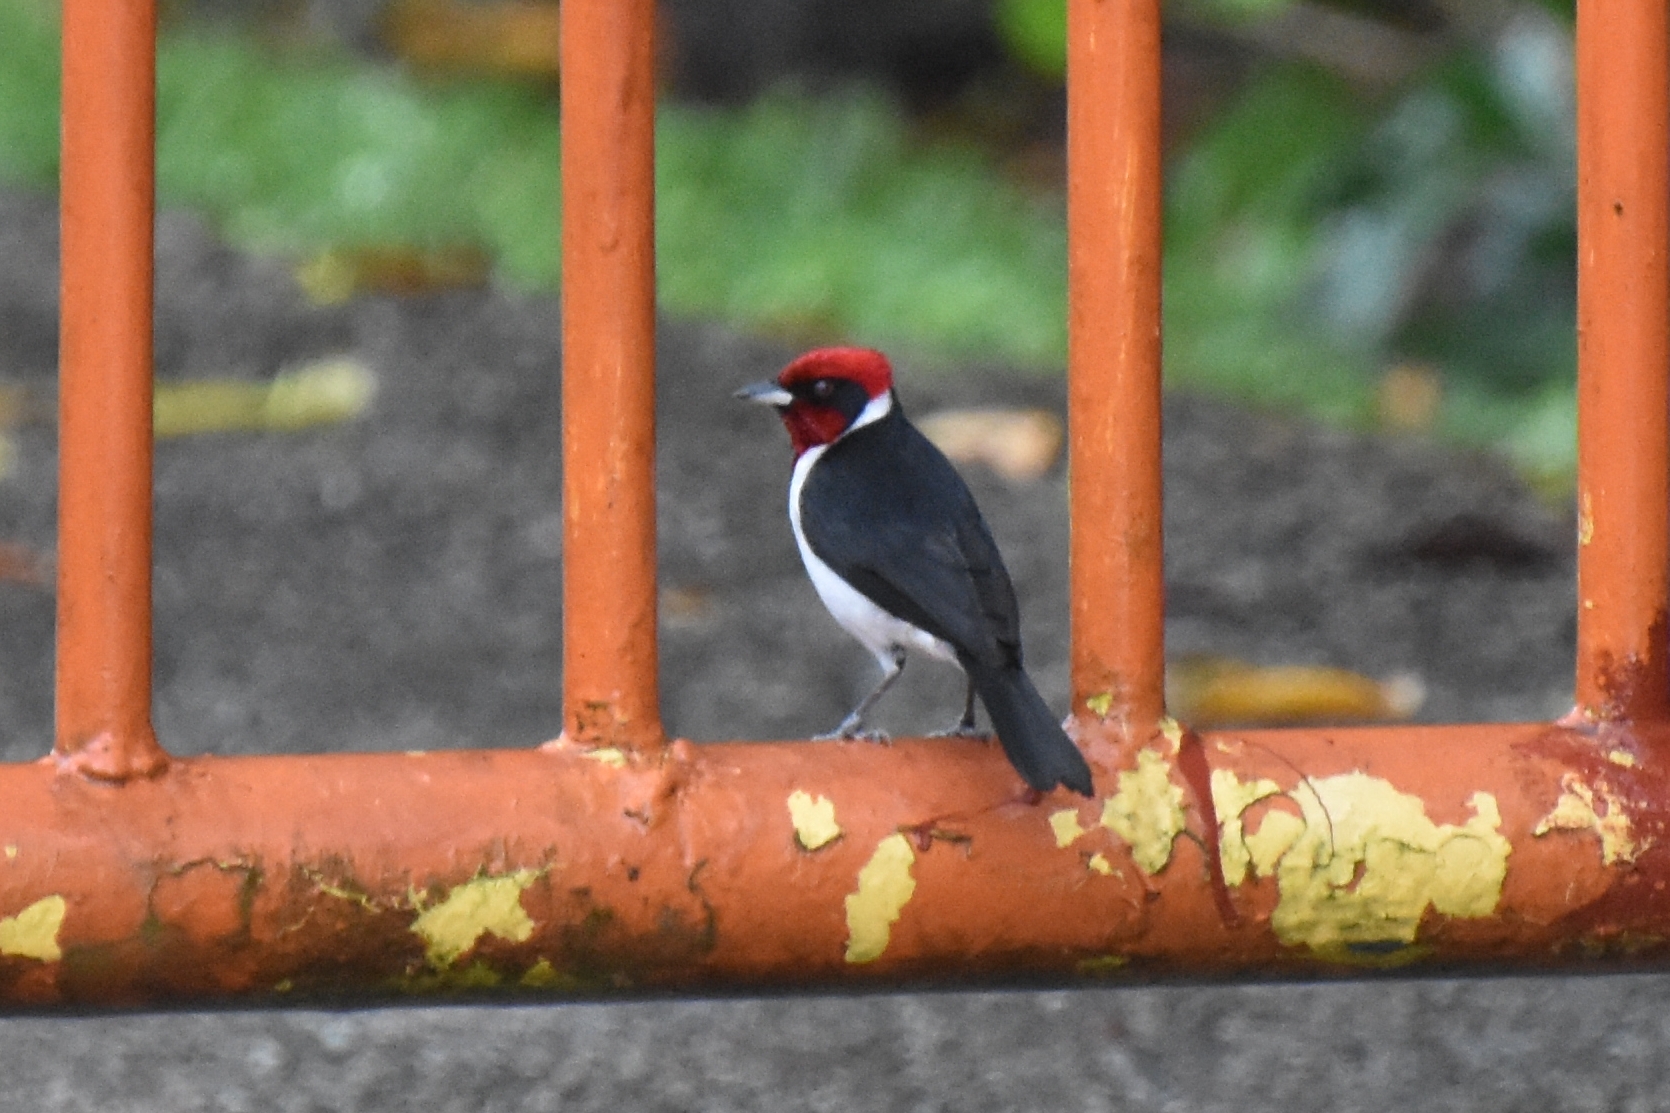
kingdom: Animalia
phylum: Chordata
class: Aves
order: Passeriformes
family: Thraupidae
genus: Paroaria
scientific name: Paroaria nigrogenis
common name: Masked cardinal
